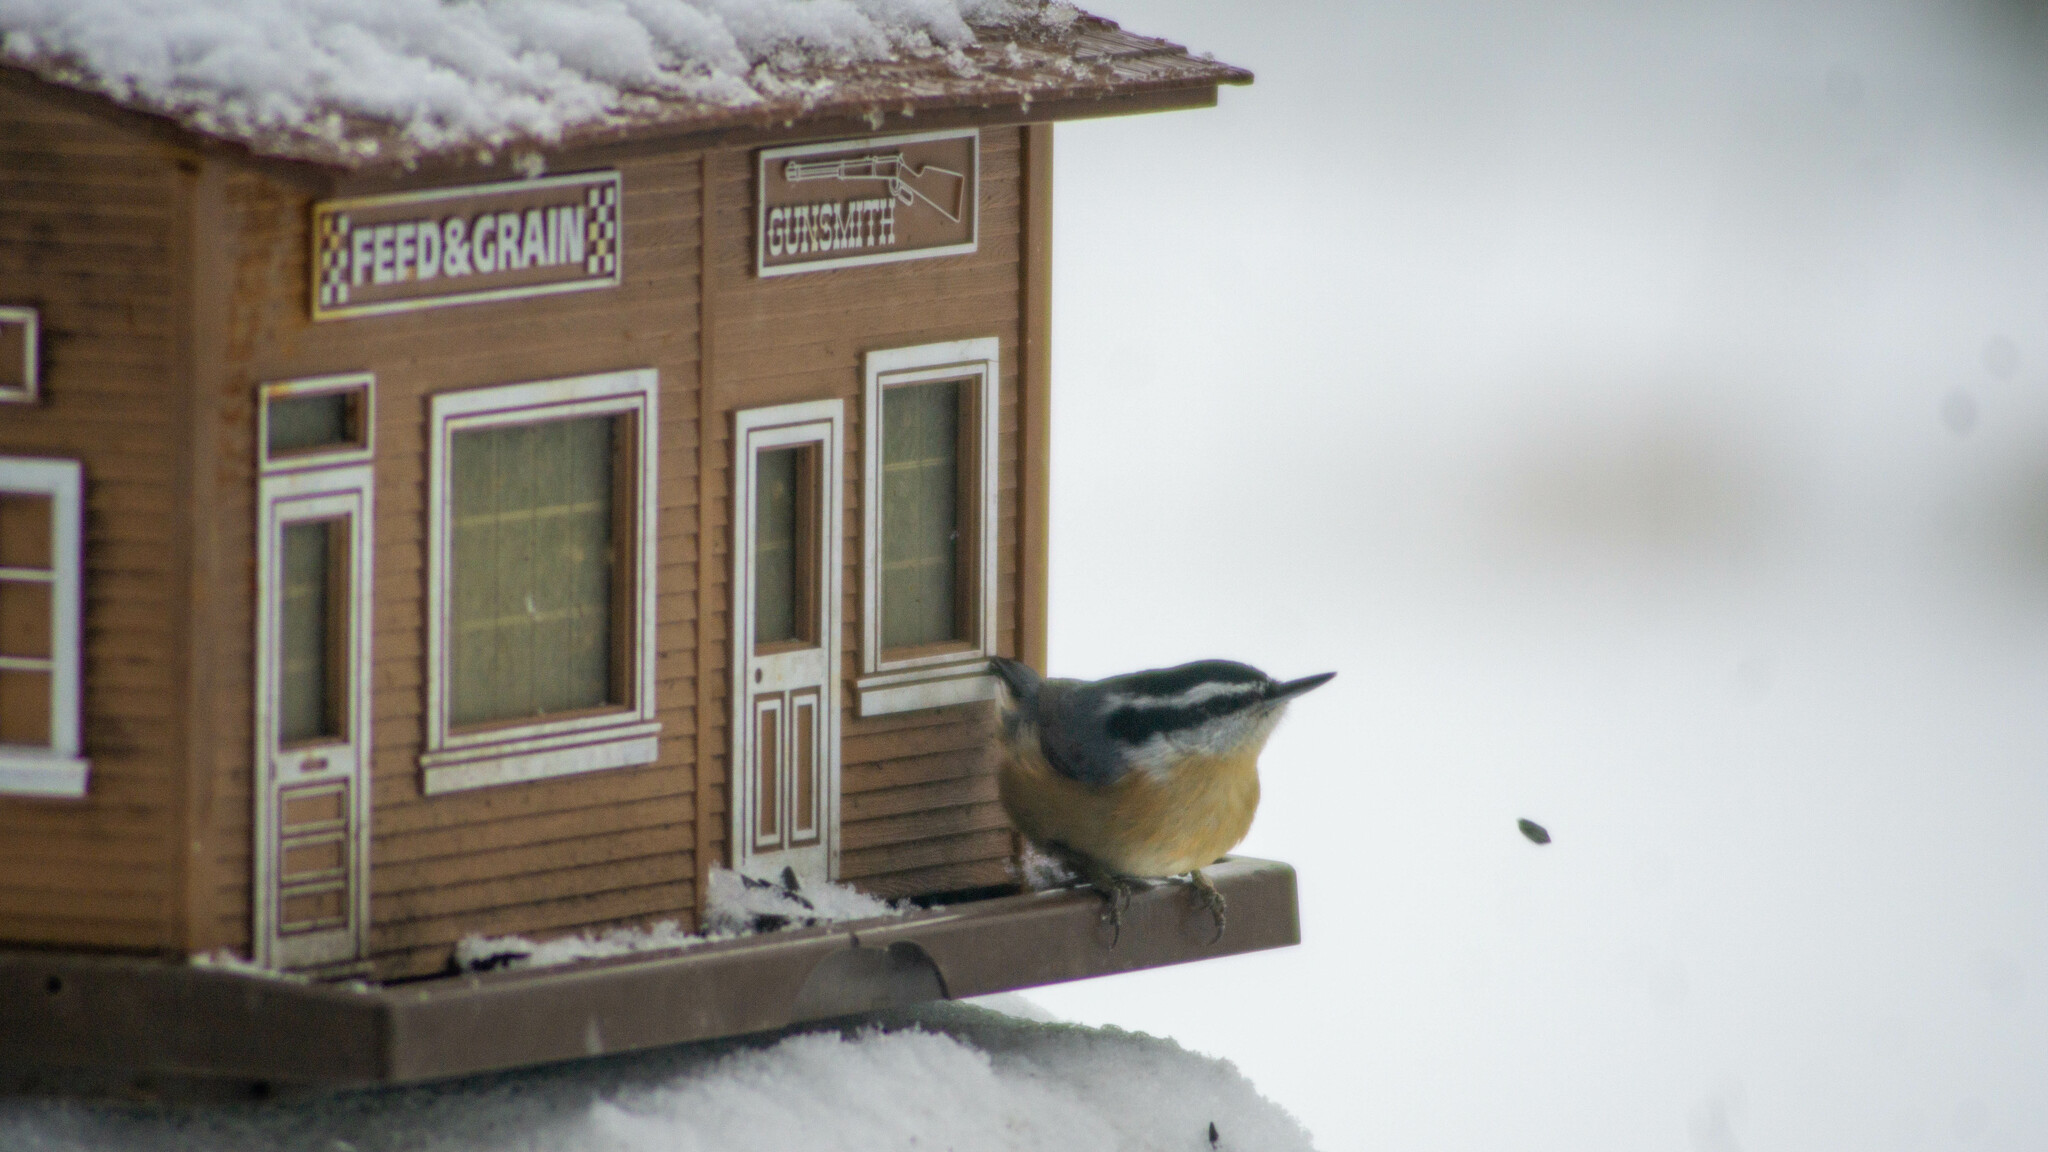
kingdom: Animalia
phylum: Chordata
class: Aves
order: Passeriformes
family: Sittidae
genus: Sitta
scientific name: Sitta canadensis
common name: Red-breasted nuthatch
